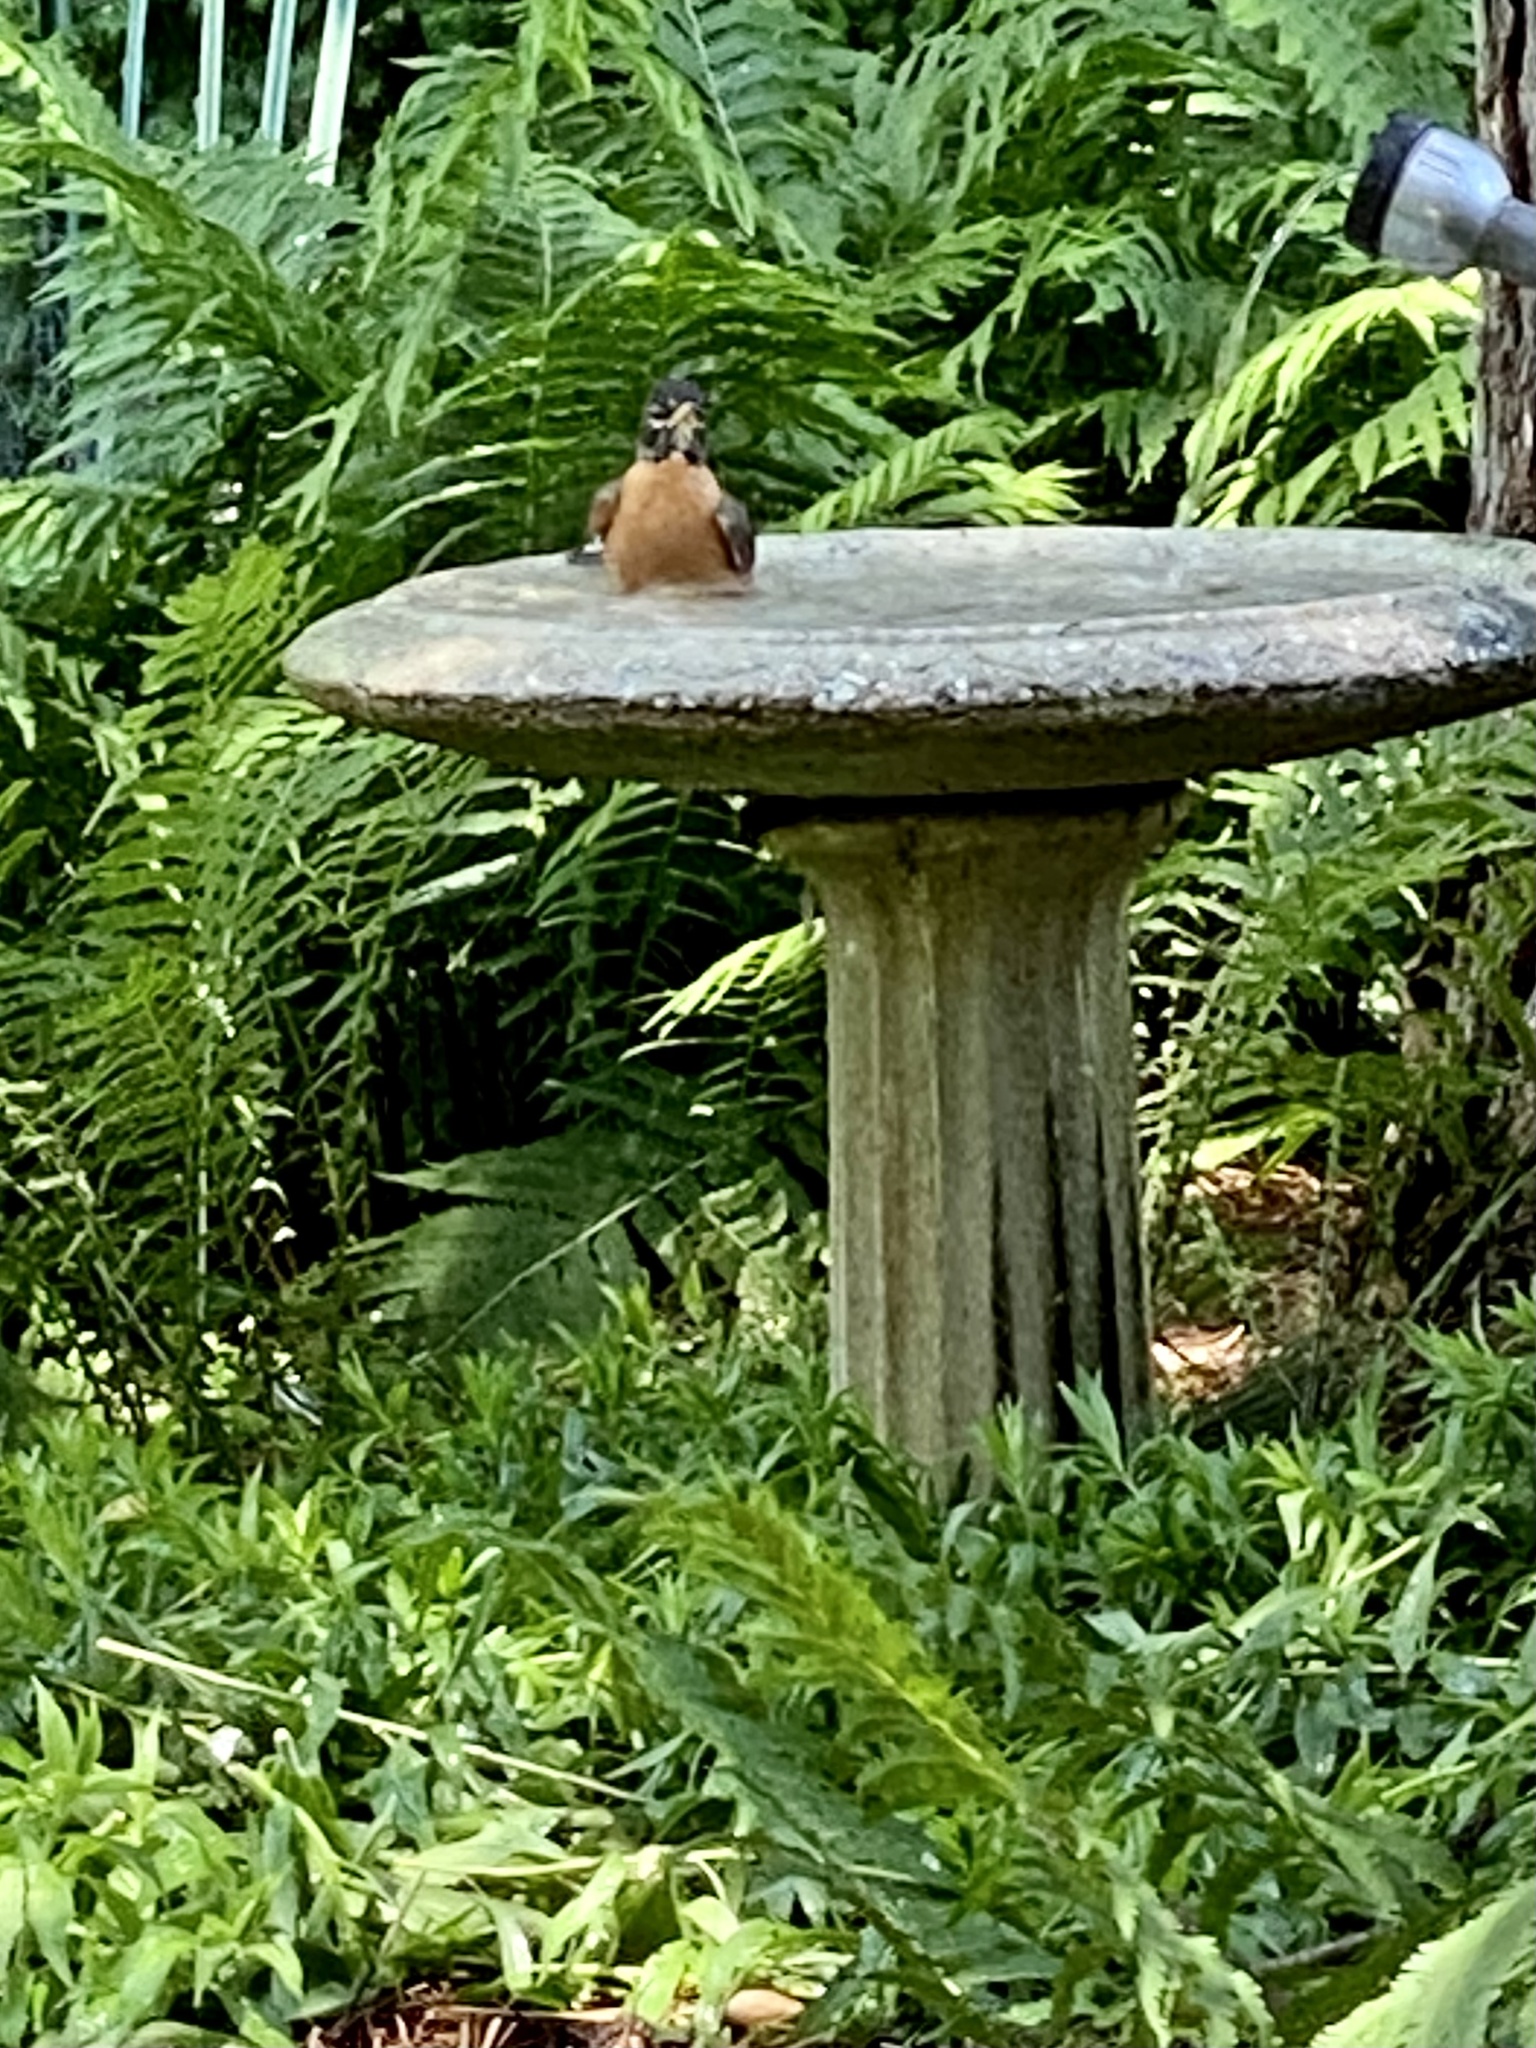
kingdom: Animalia
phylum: Chordata
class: Aves
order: Passeriformes
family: Turdidae
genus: Turdus
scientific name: Turdus migratorius
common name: American robin
